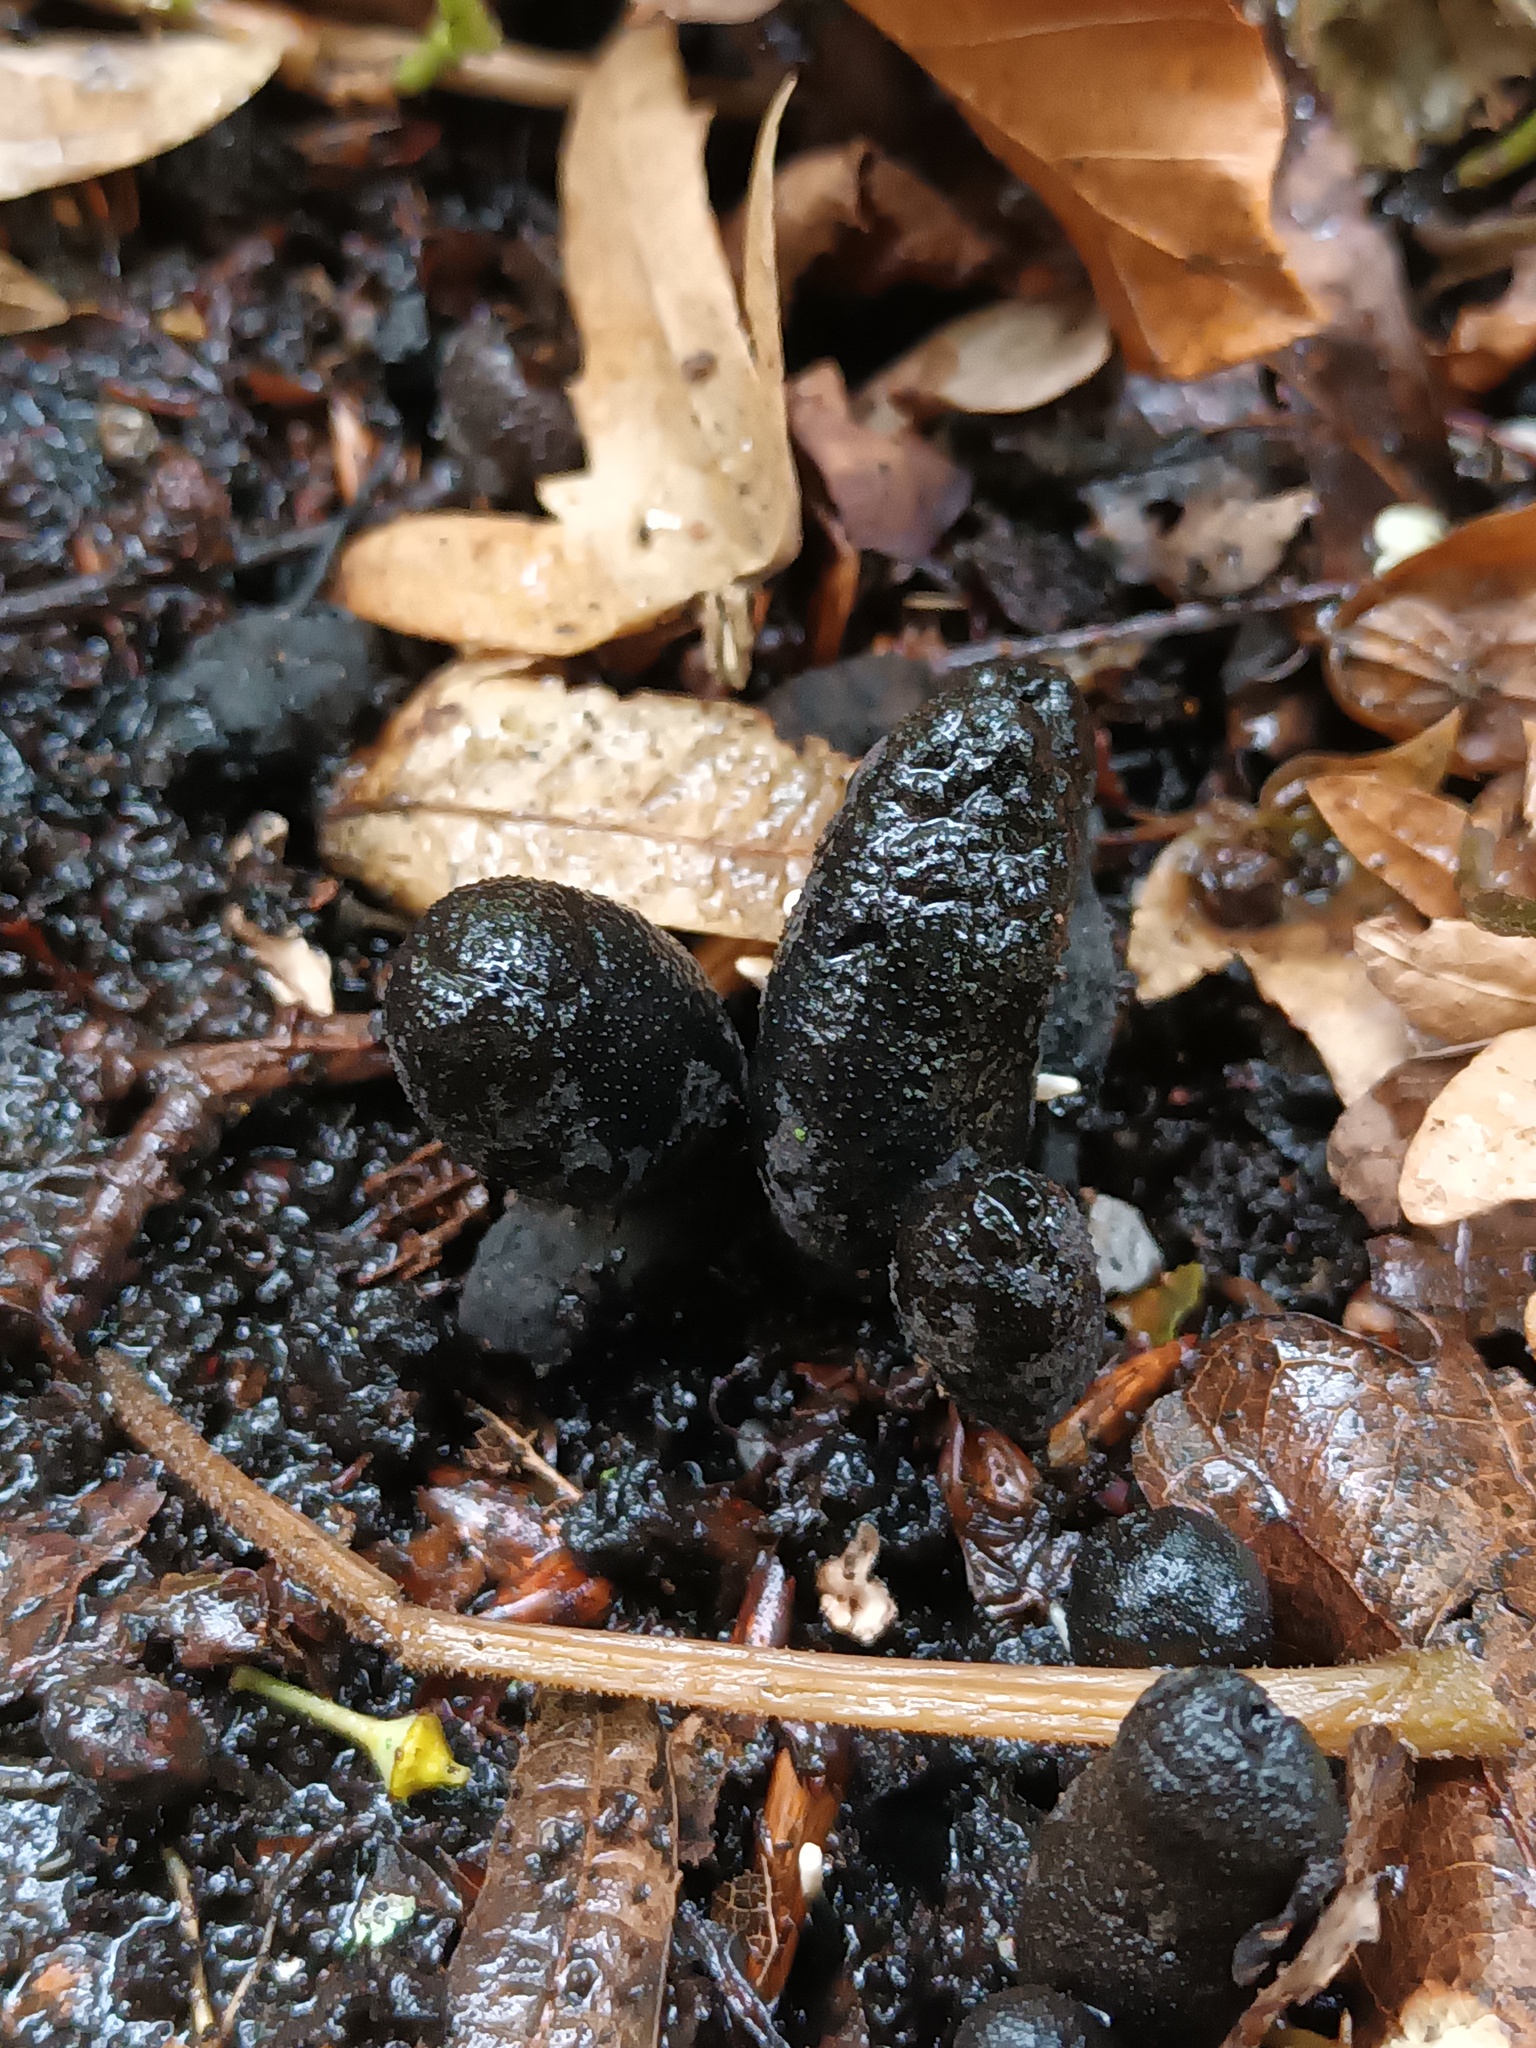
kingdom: Fungi
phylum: Ascomycota
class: Sordariomycetes
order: Xylariales
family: Xylariaceae
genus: Xylaria
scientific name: Xylaria polymorpha
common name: Dead man's fingers
